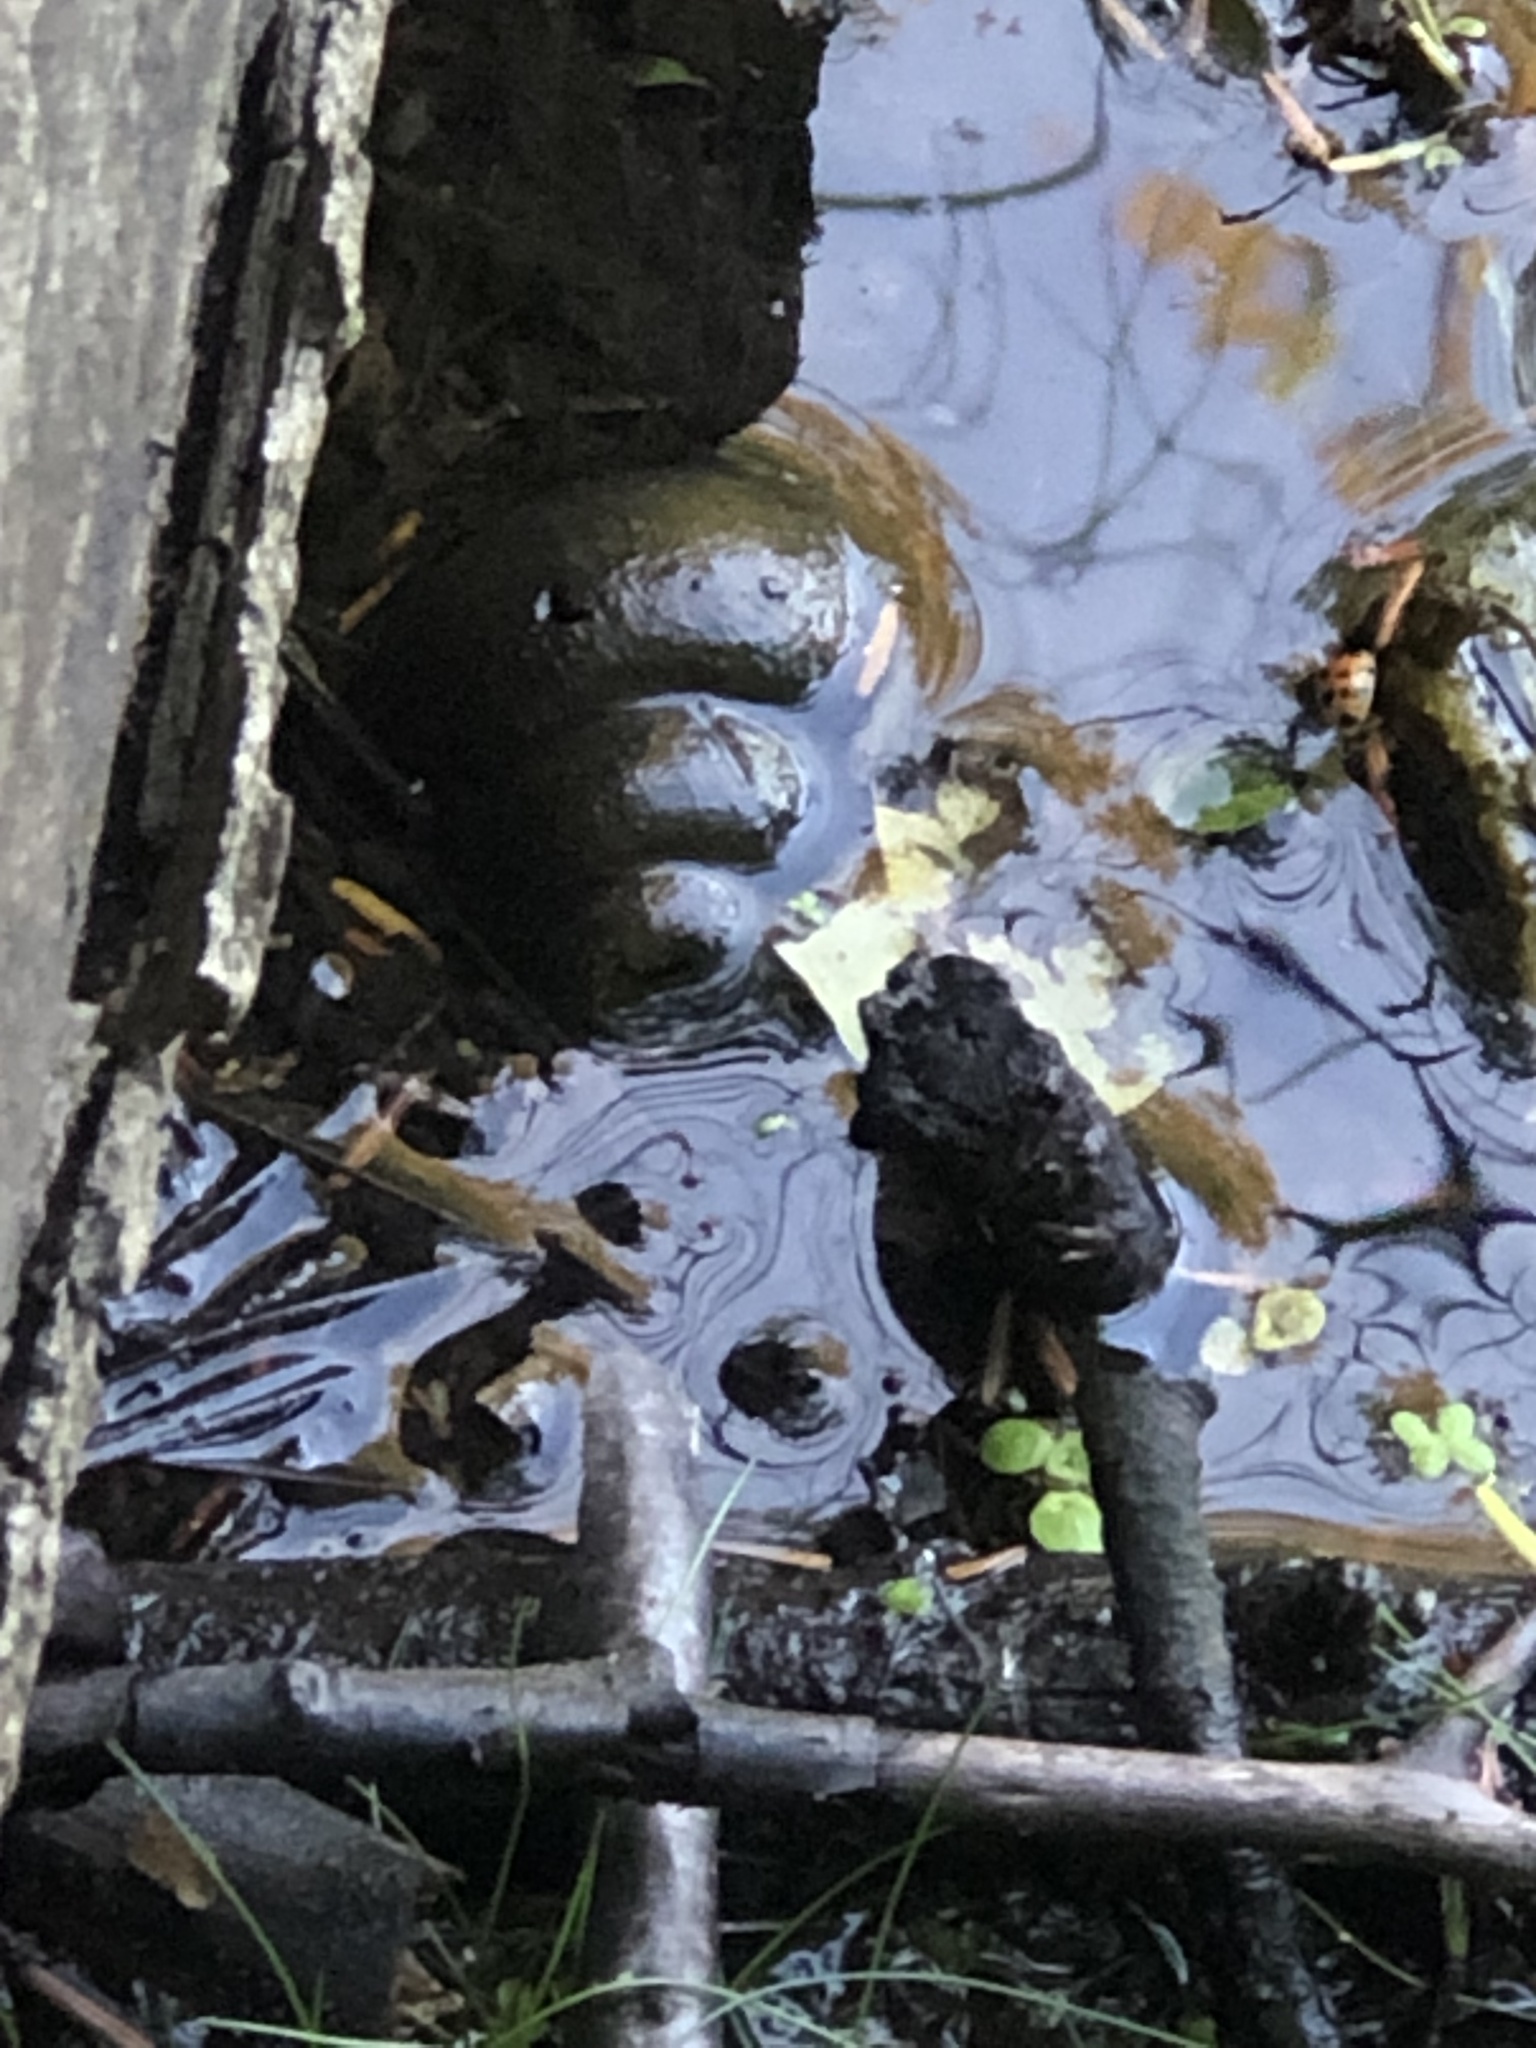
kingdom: Animalia
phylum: Mollusca
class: Gastropoda
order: Architaenioglossa
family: Viviparidae
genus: Cipangopaludina
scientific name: Cipangopaludina chinensis
